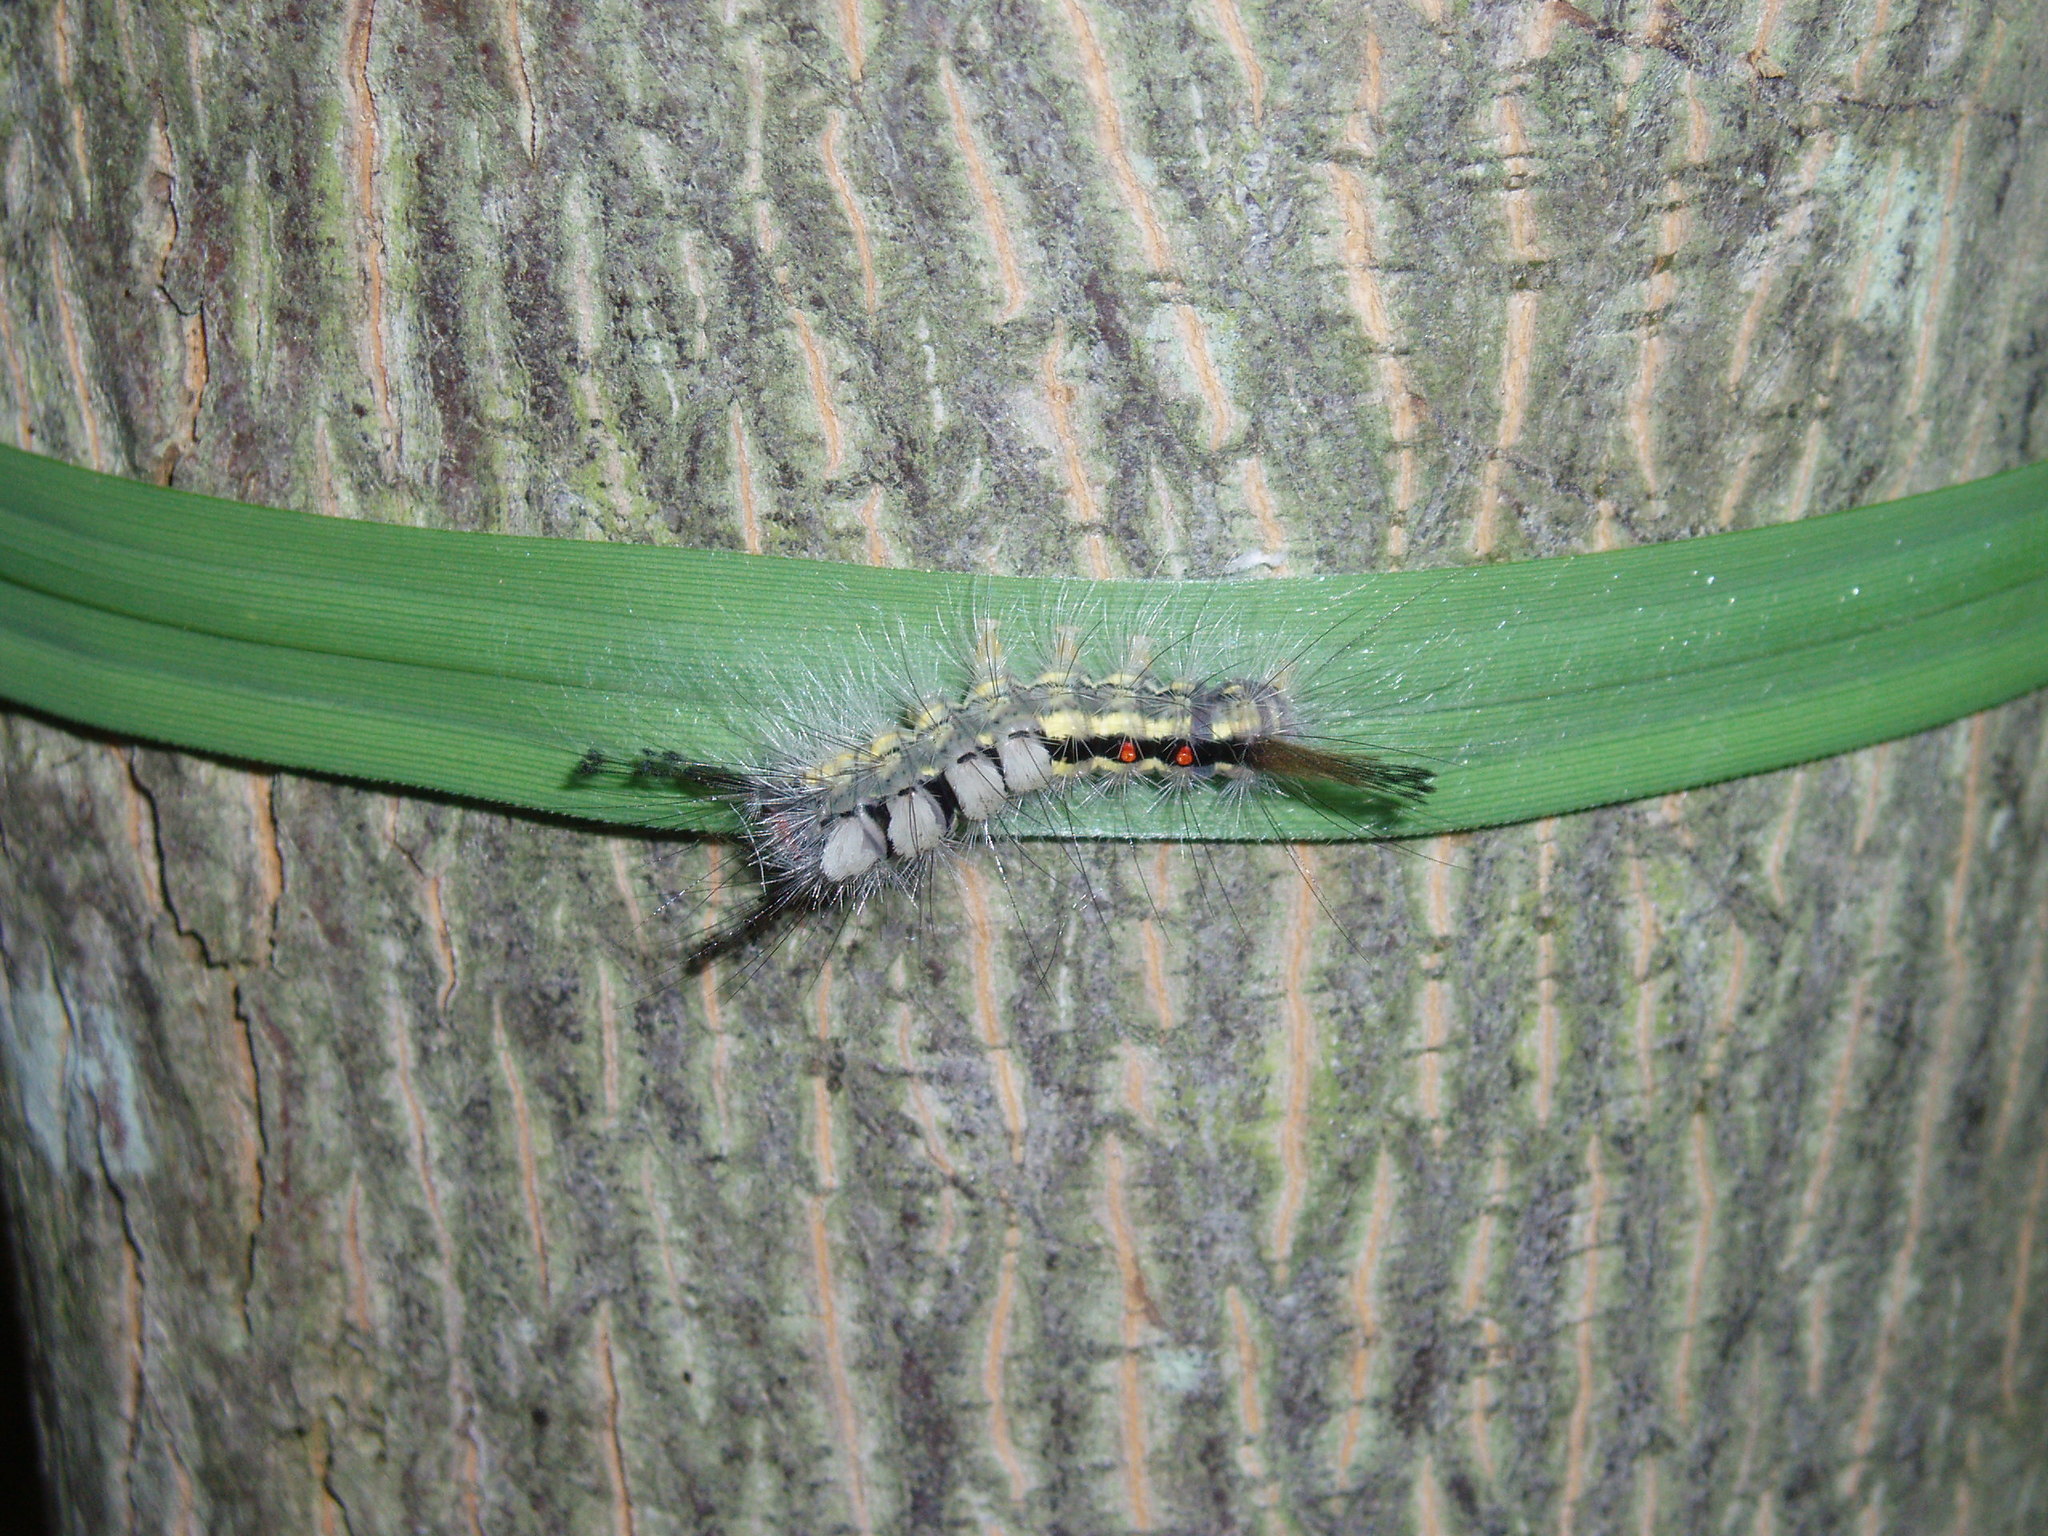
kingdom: Animalia
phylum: Arthropoda
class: Insecta
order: Lepidoptera
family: Erebidae
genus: Orgyia
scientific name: Orgyia leucostigma
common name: White-marked tussock moth
